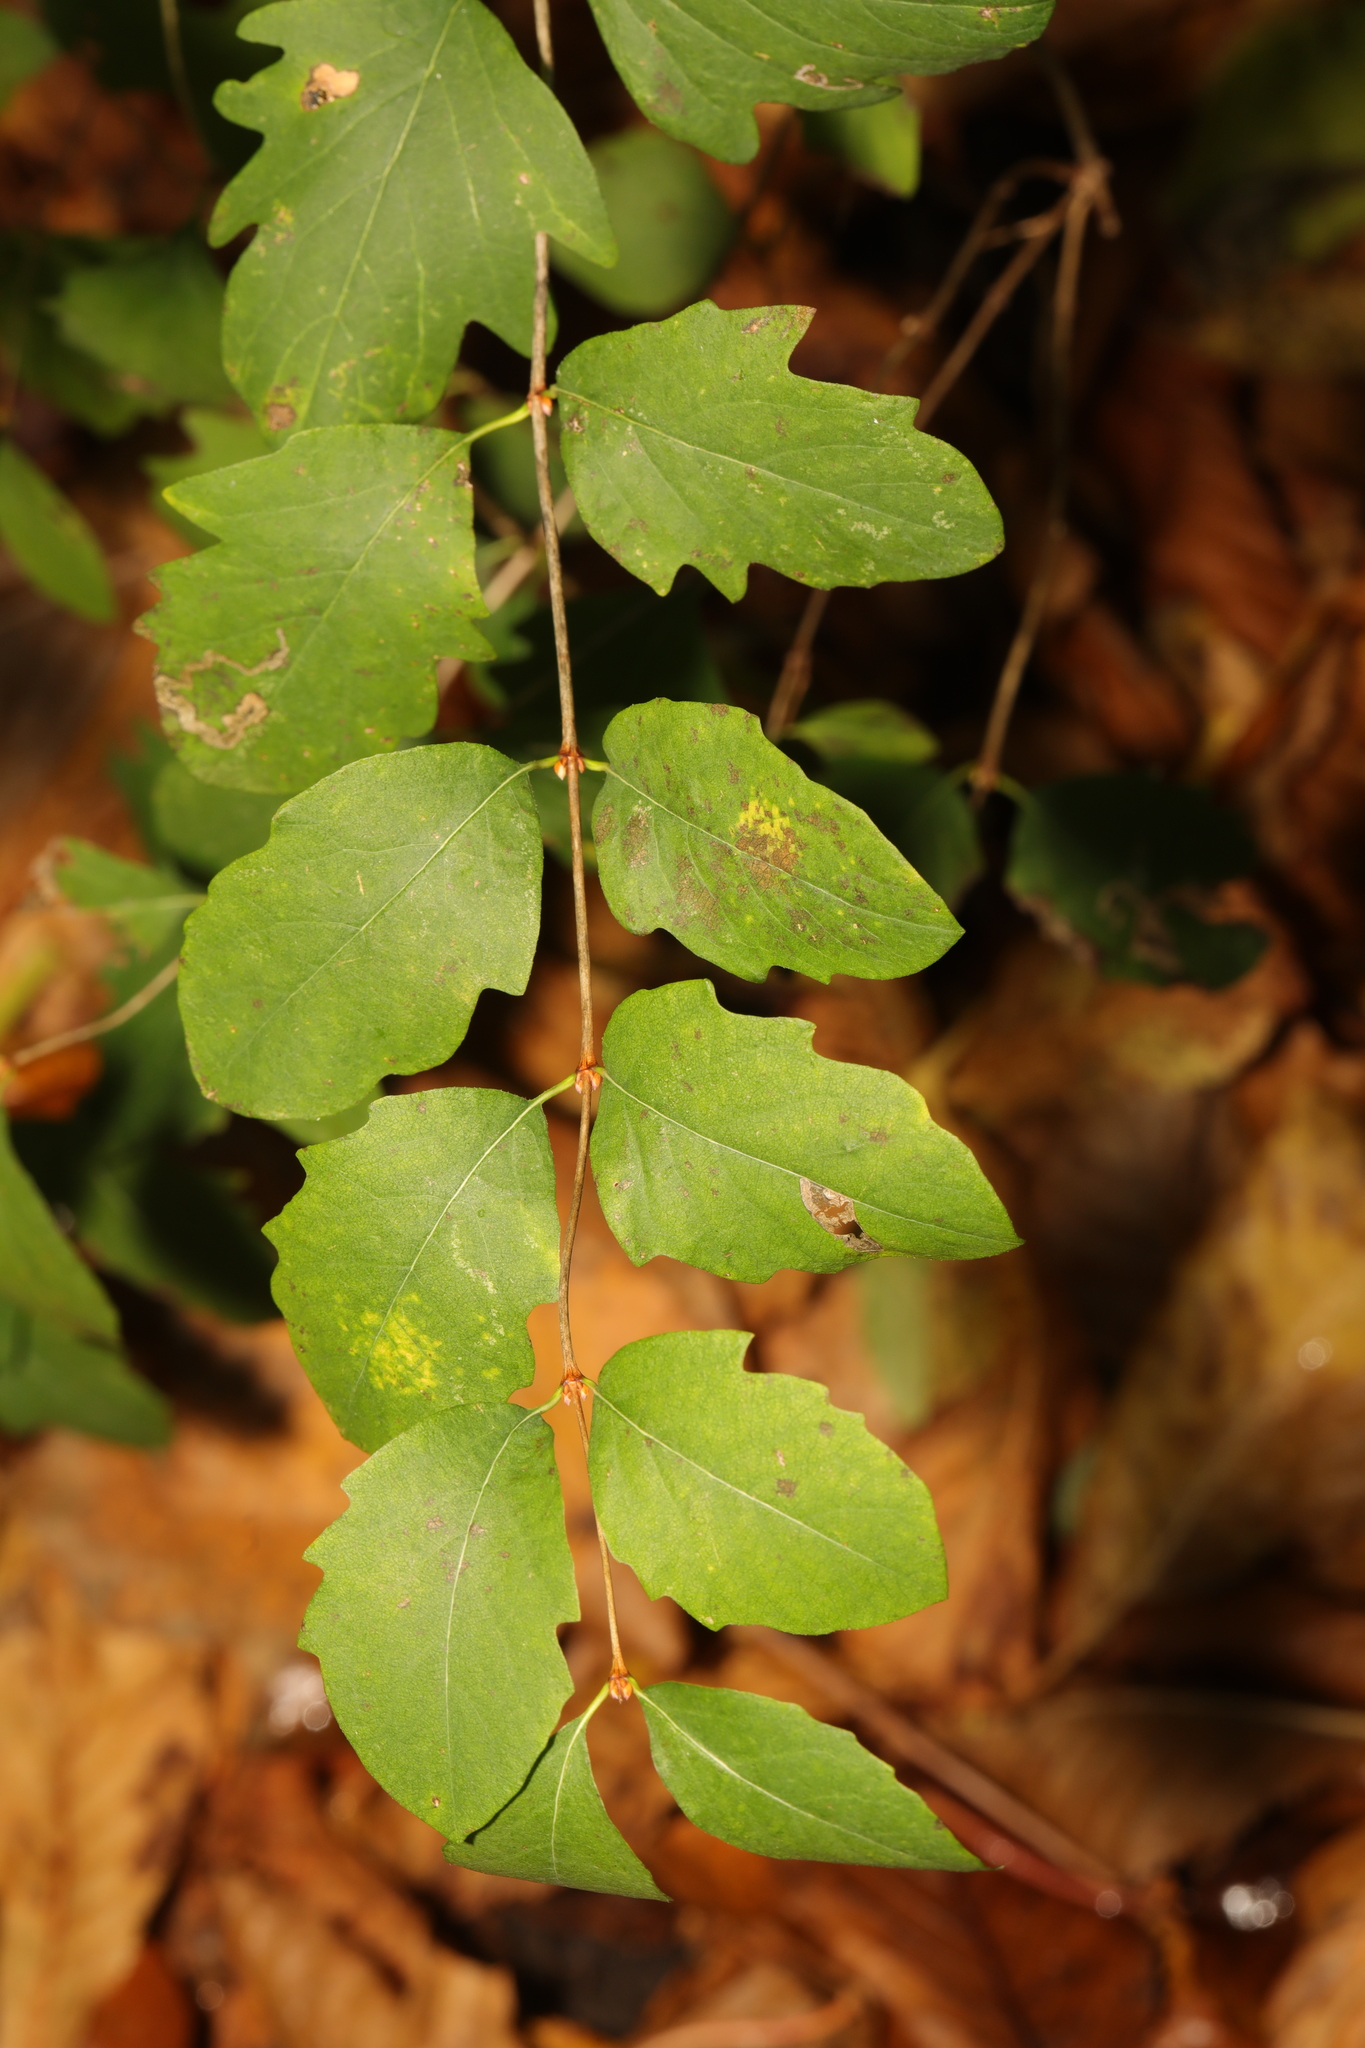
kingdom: Plantae
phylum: Tracheophyta
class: Magnoliopsida
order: Dipsacales
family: Caprifoliaceae
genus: Symphoricarpos
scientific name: Symphoricarpos albus
